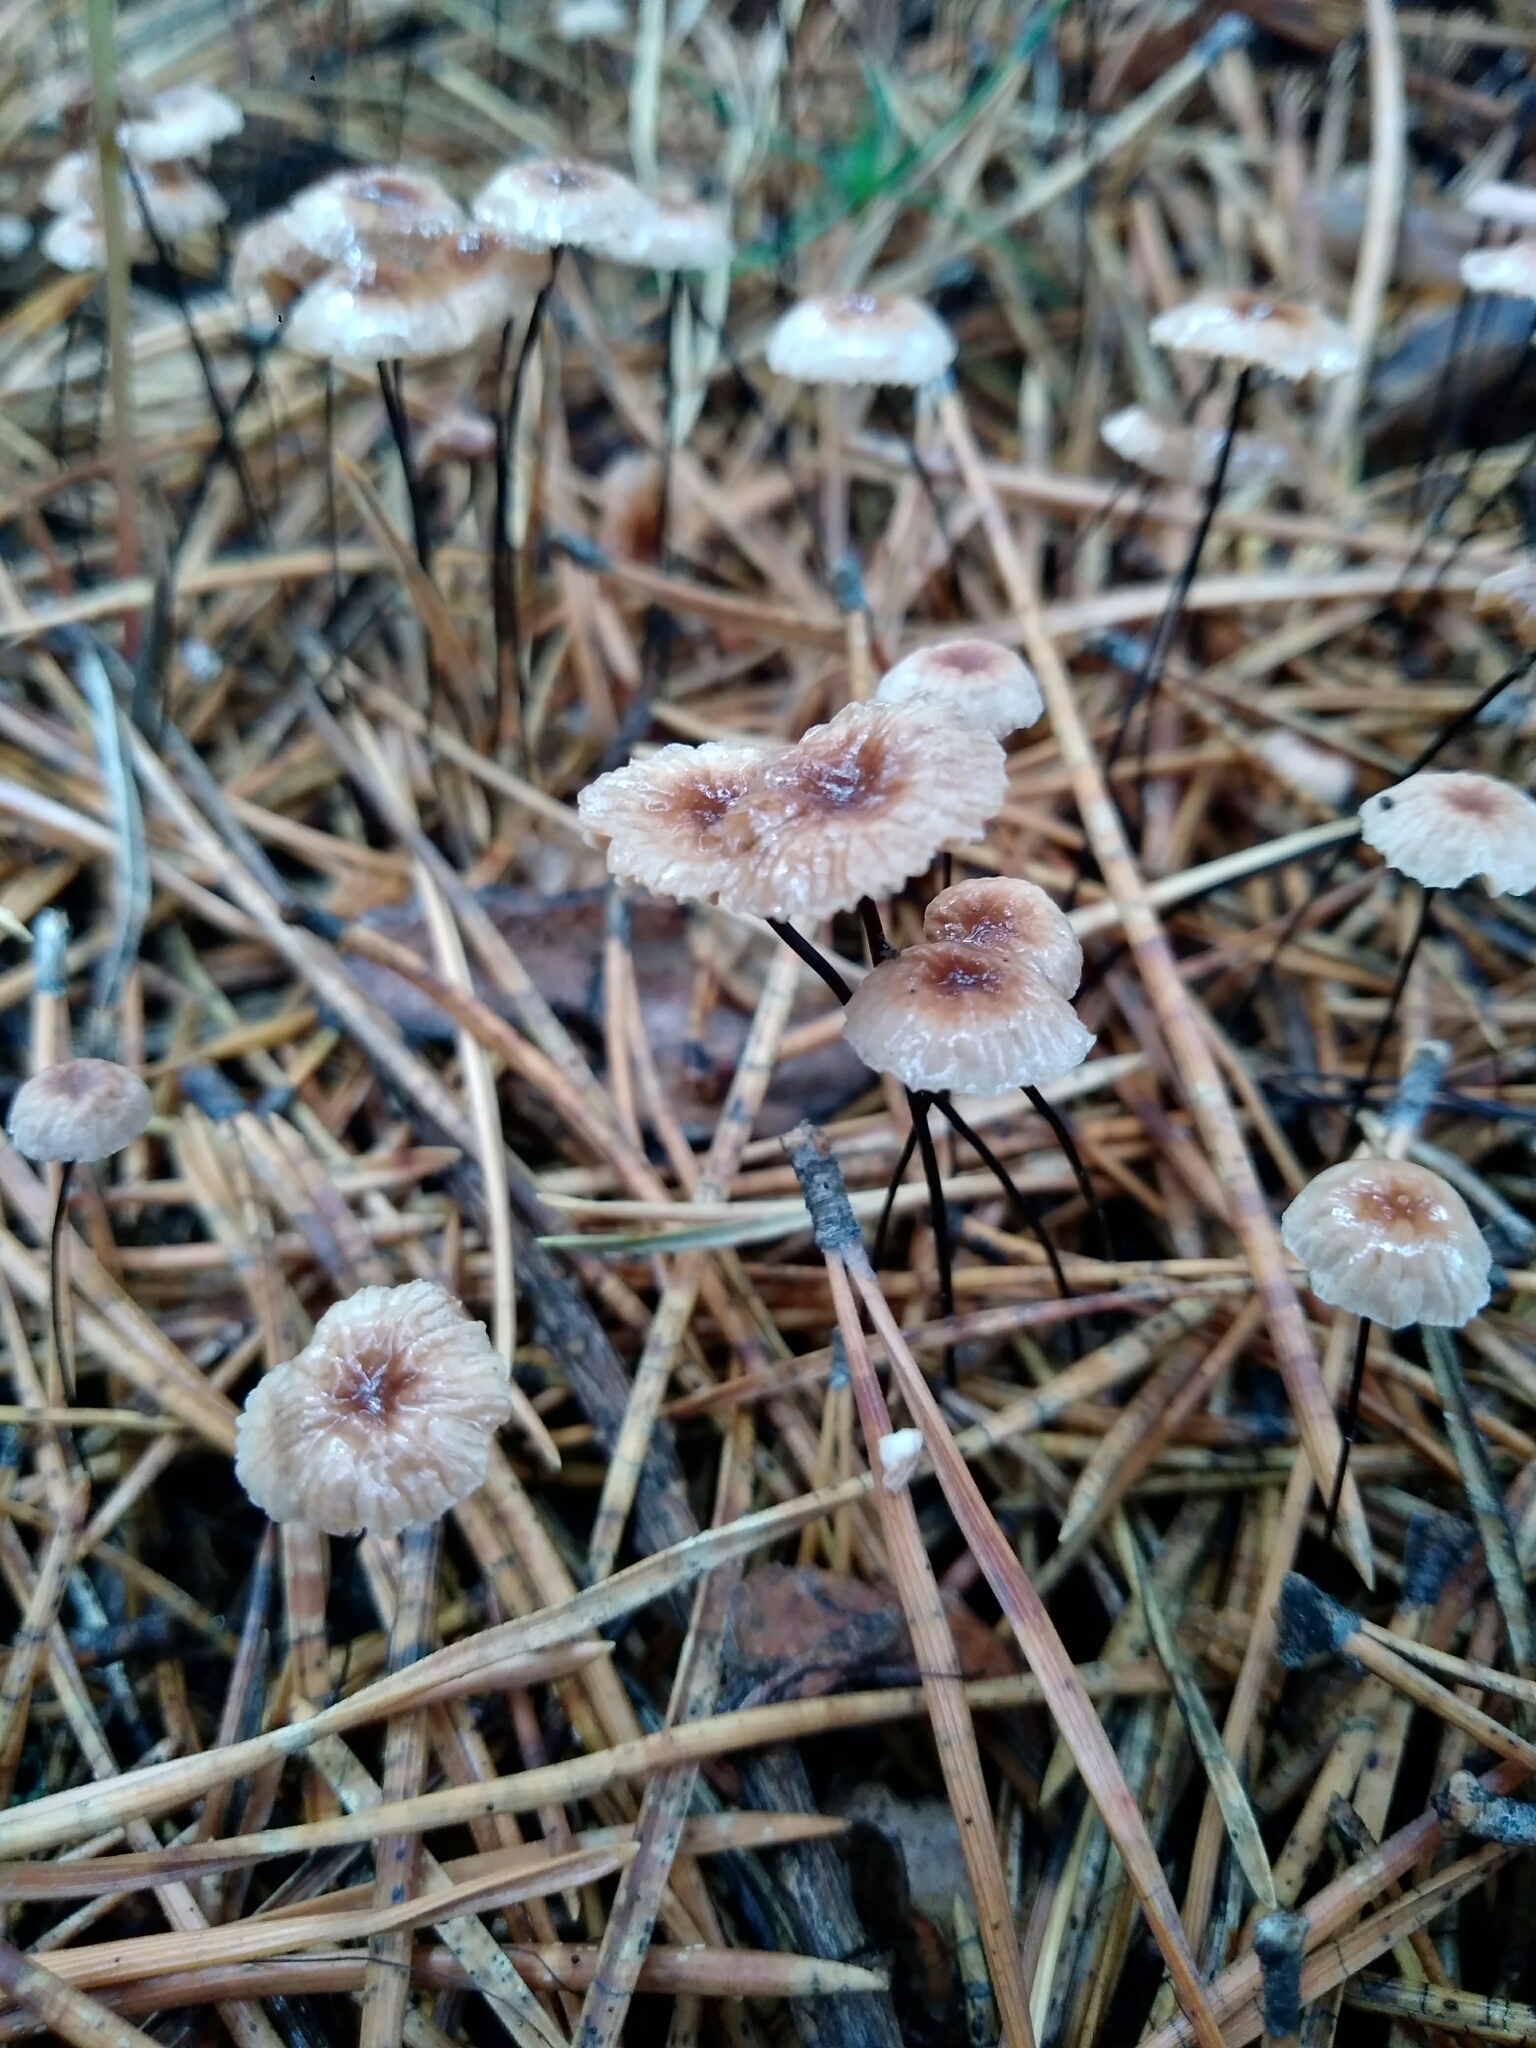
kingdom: Fungi
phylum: Basidiomycota
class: Agaricomycetes
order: Agaricales
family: Omphalotaceae
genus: Gymnopus
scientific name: Gymnopus androsaceus
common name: Horse-hair fungus
